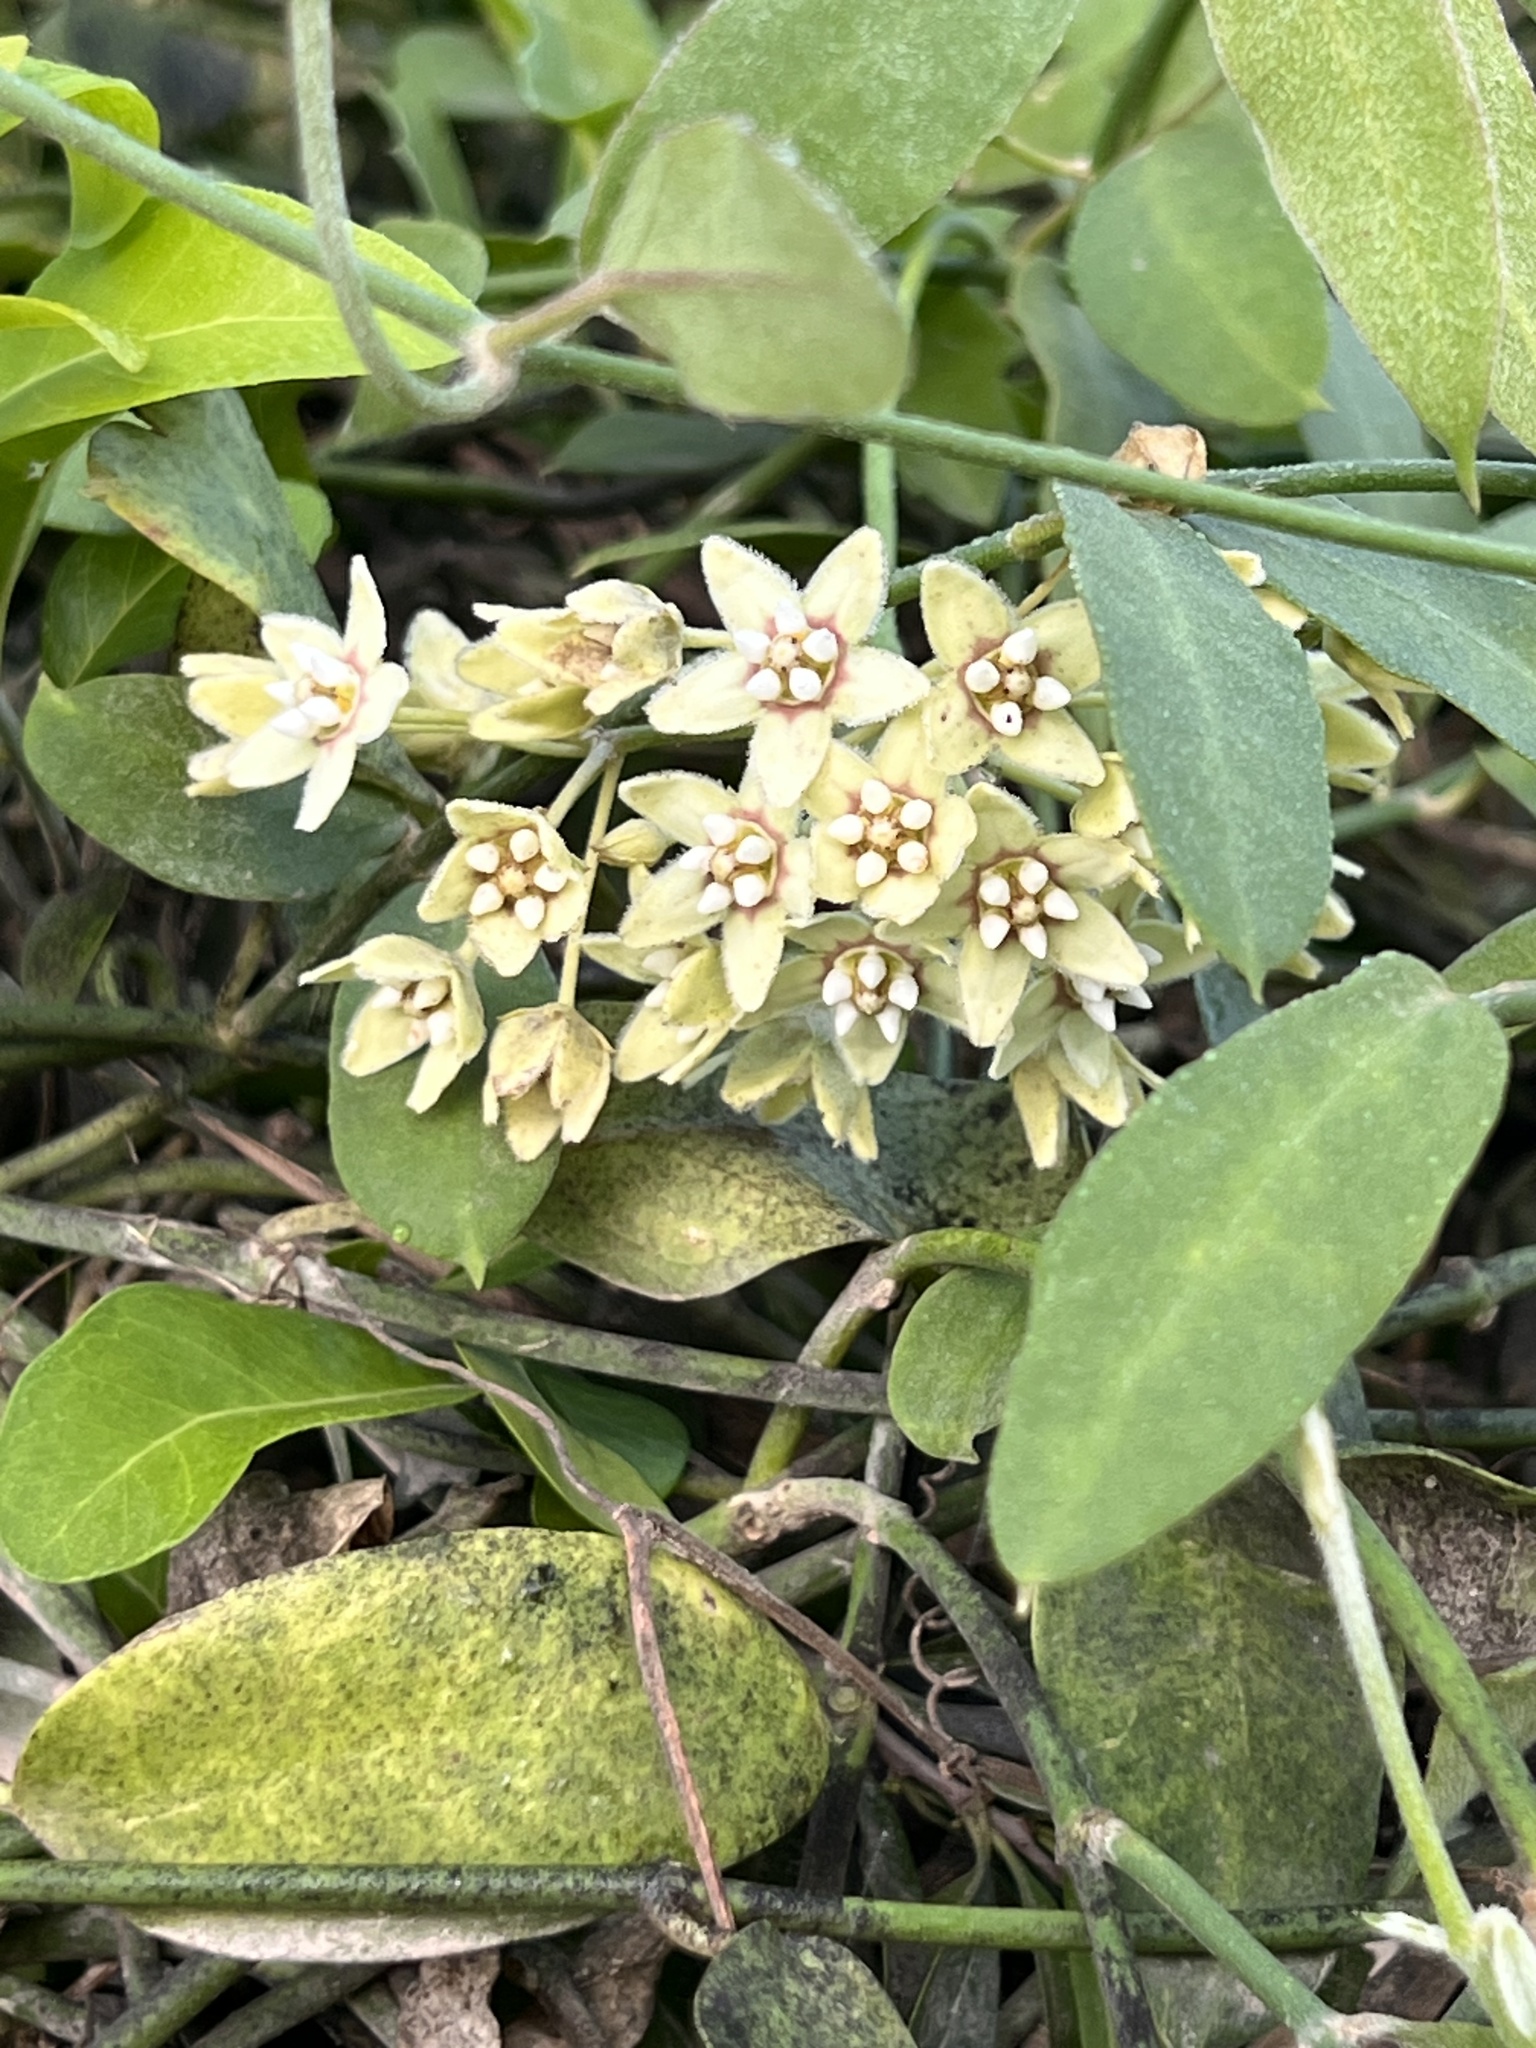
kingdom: Plantae
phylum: Tracheophyta
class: Magnoliopsida
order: Gentianales
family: Apocynaceae
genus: Funastrum
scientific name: Funastrum cynanchoides
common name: Climbing-milkweed
